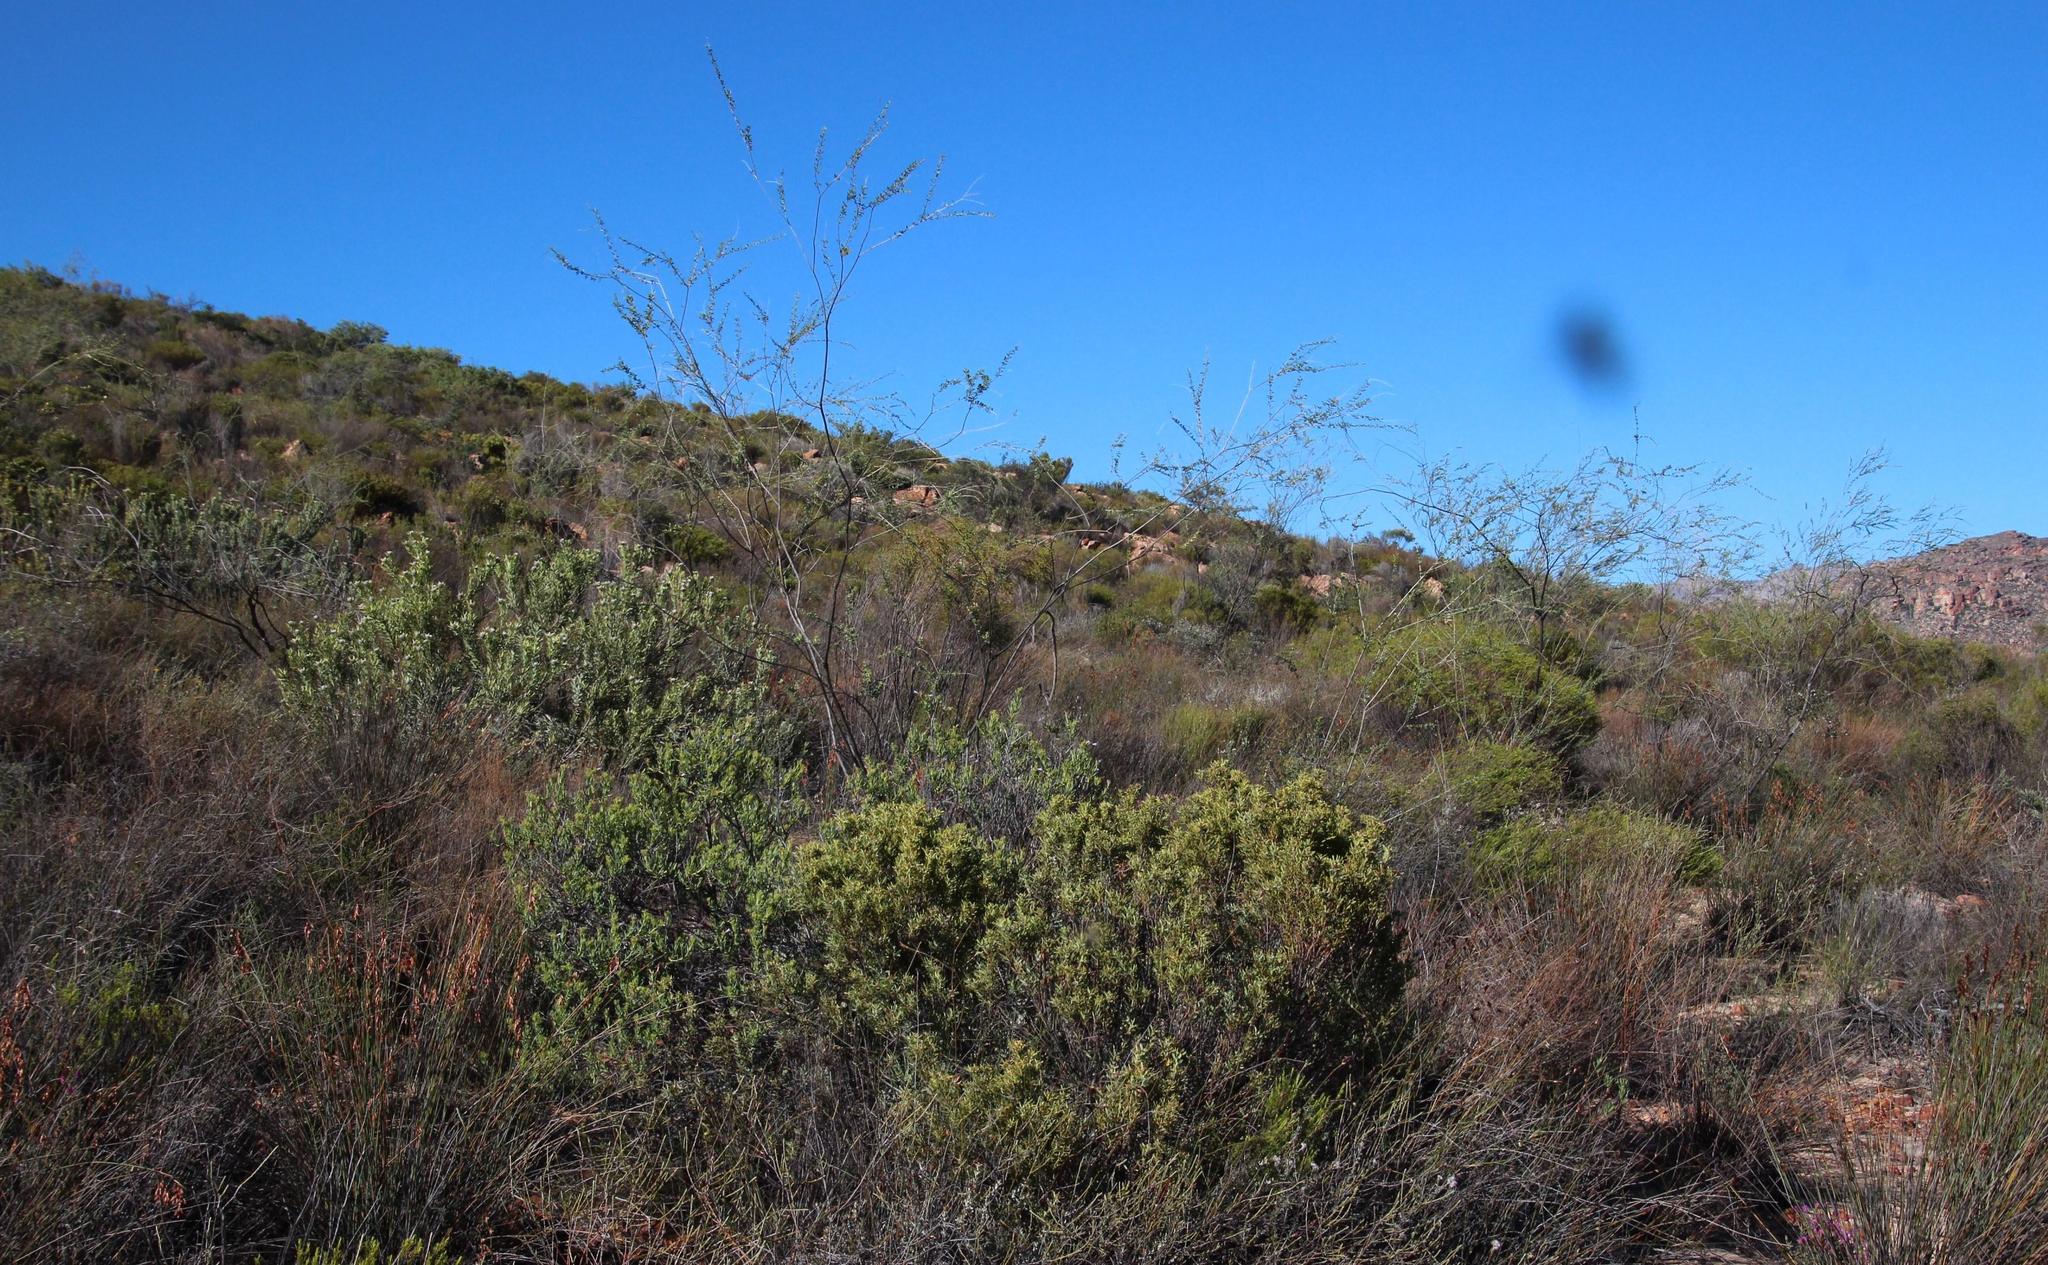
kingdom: Plantae
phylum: Tracheophyta
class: Magnoliopsida
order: Proteales
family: Proteaceae
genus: Leucadendron
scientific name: Leucadendron pubescens
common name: Grey conebush
